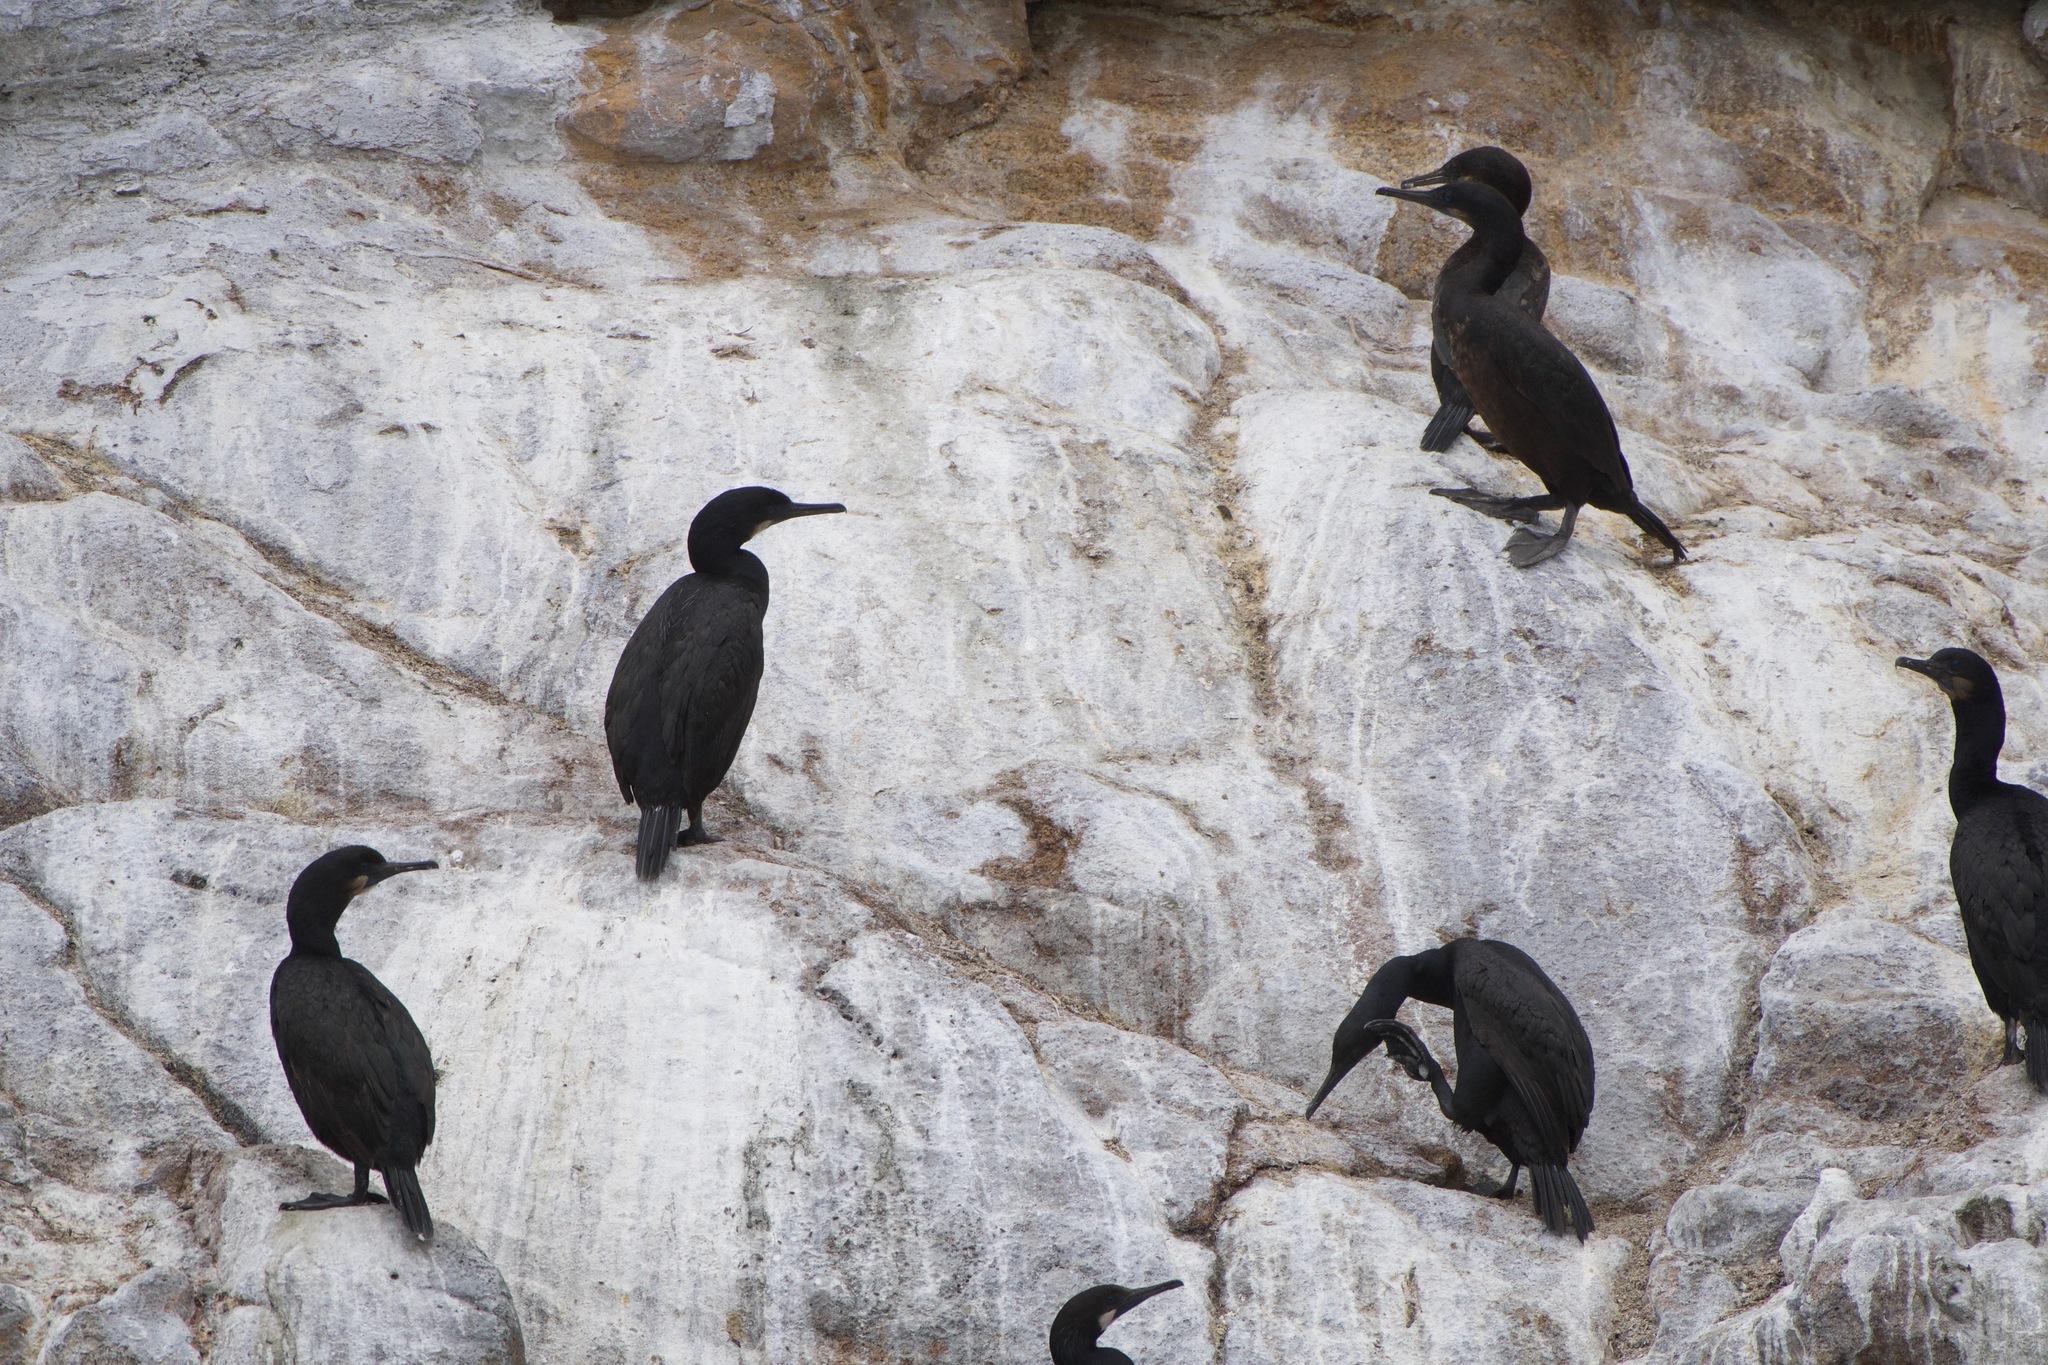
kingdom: Animalia
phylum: Chordata
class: Aves
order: Suliformes
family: Phalacrocoracidae
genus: Urile
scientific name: Urile penicillatus
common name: Brandt's cormorant
